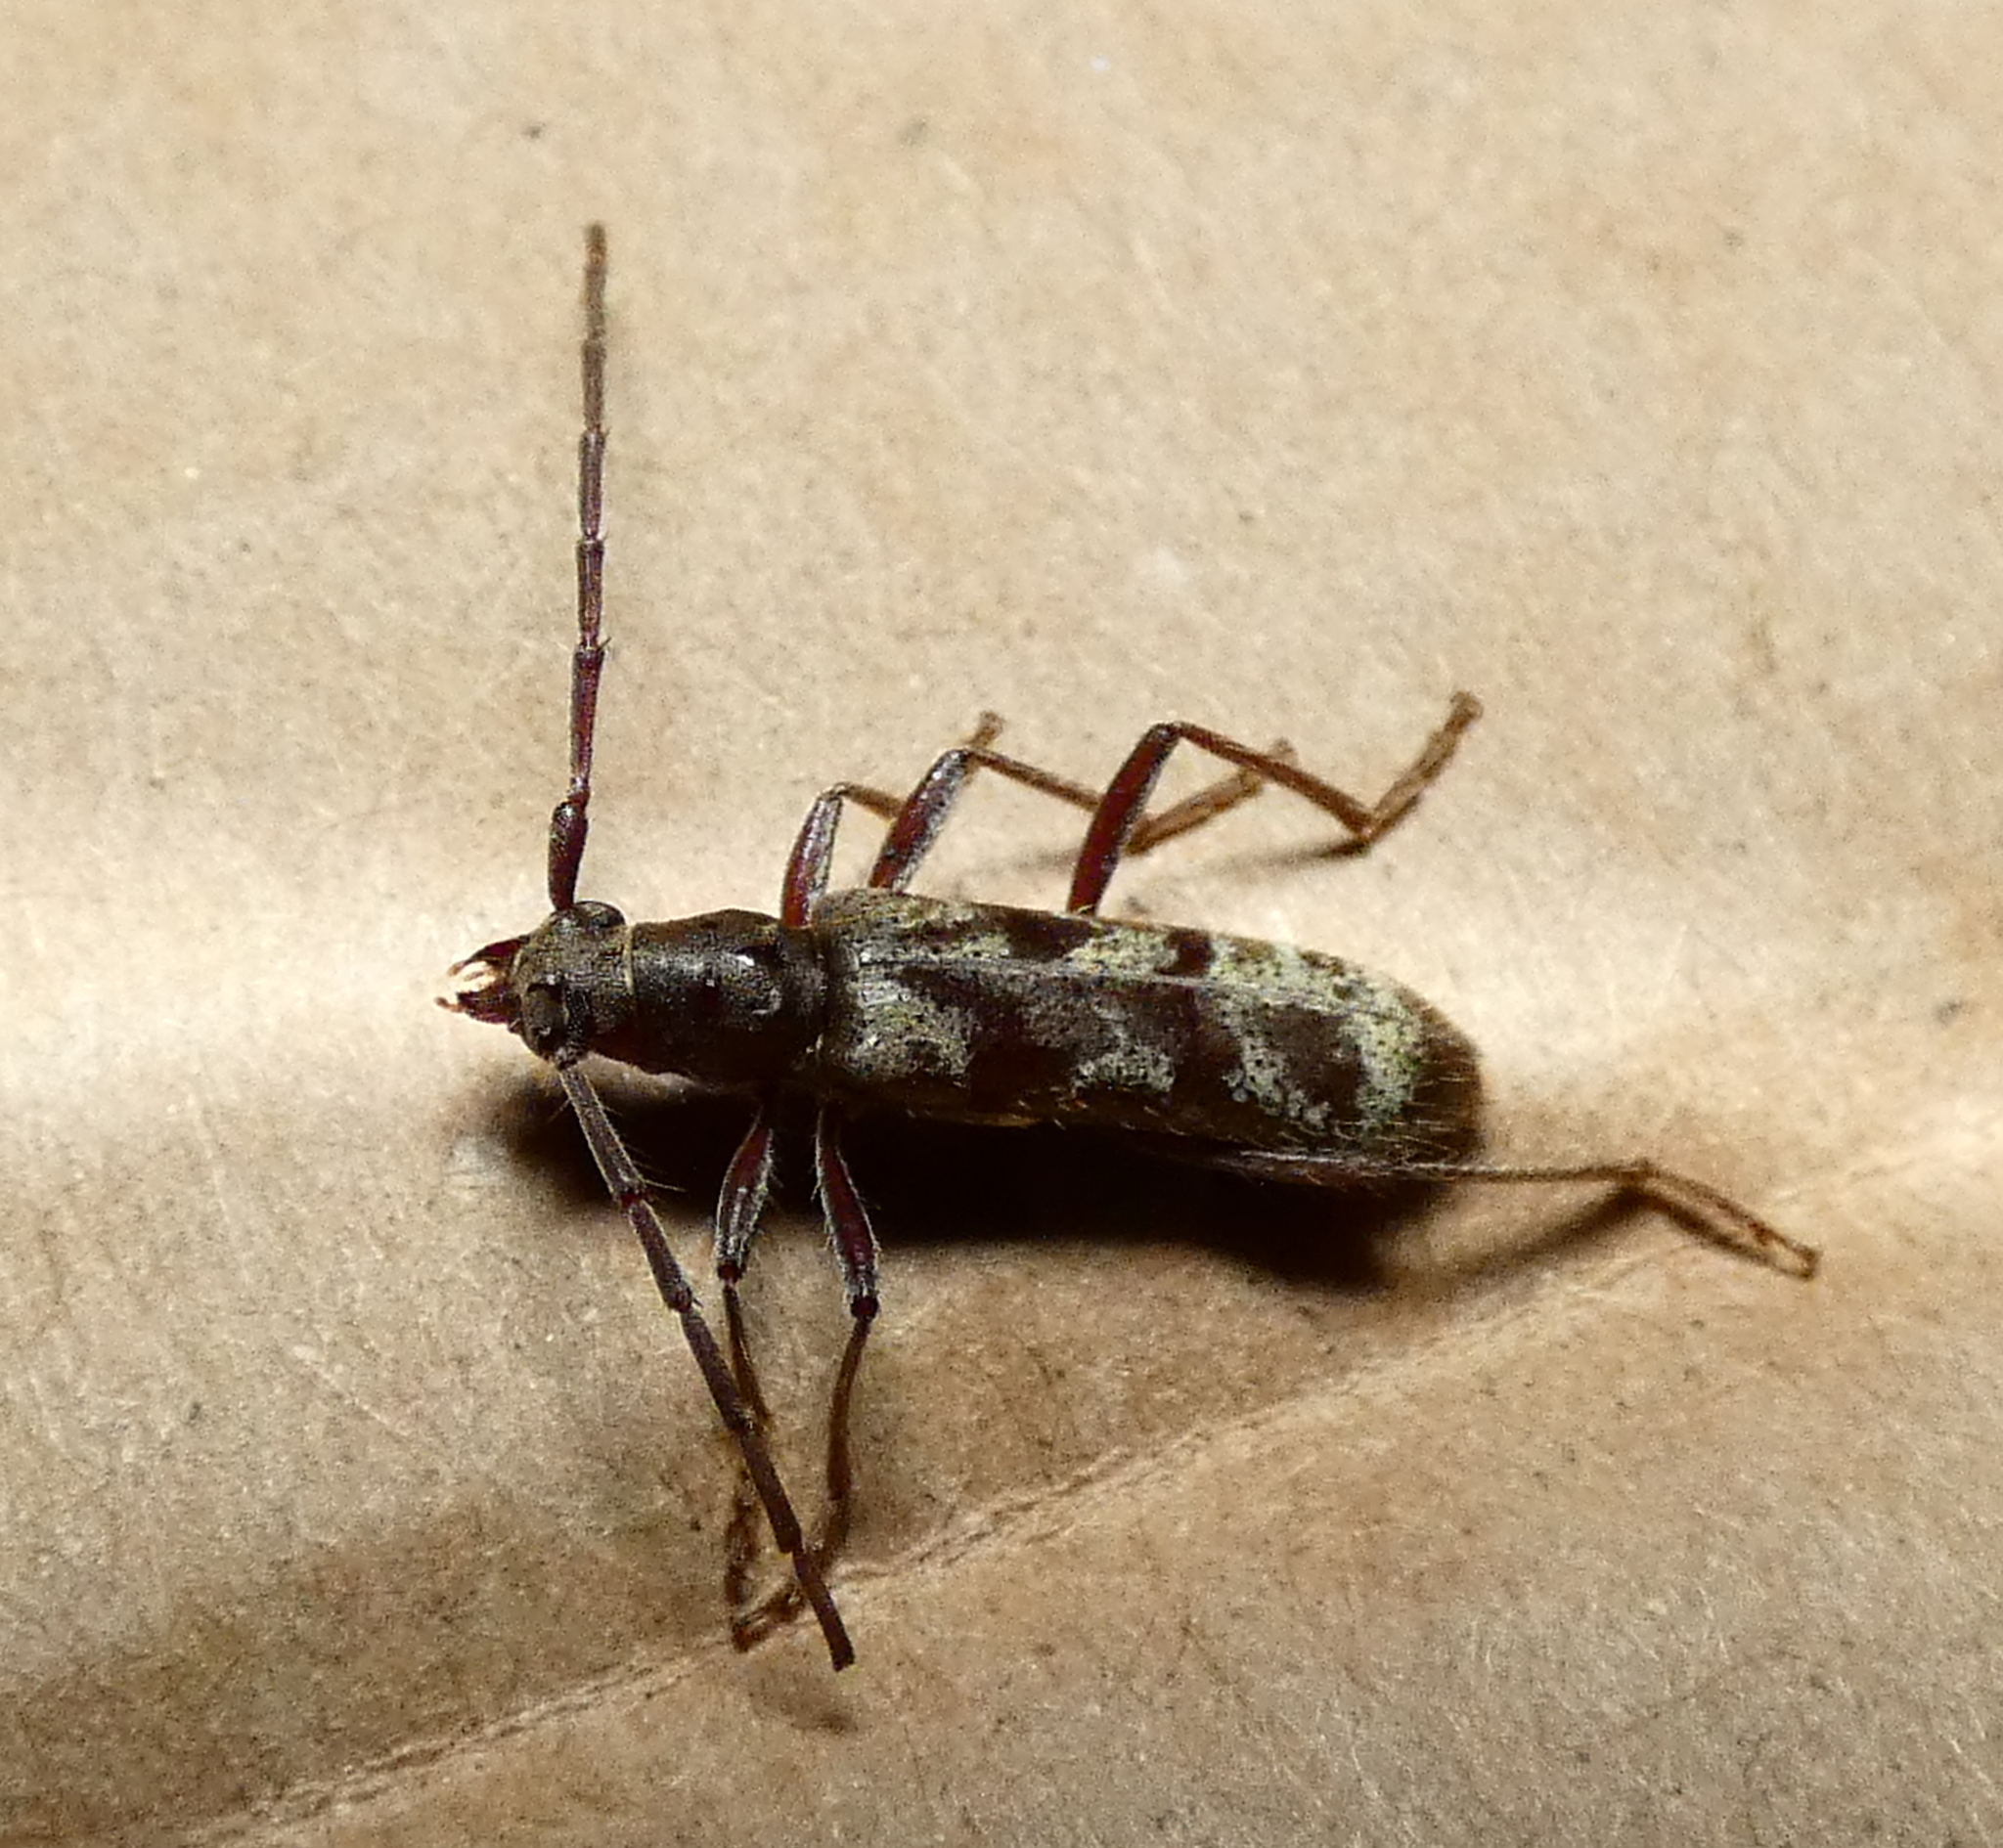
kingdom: Animalia
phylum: Arthropoda
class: Insecta
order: Coleoptera
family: Cerambycidae
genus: Mallocera
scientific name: Mallocera simplex
